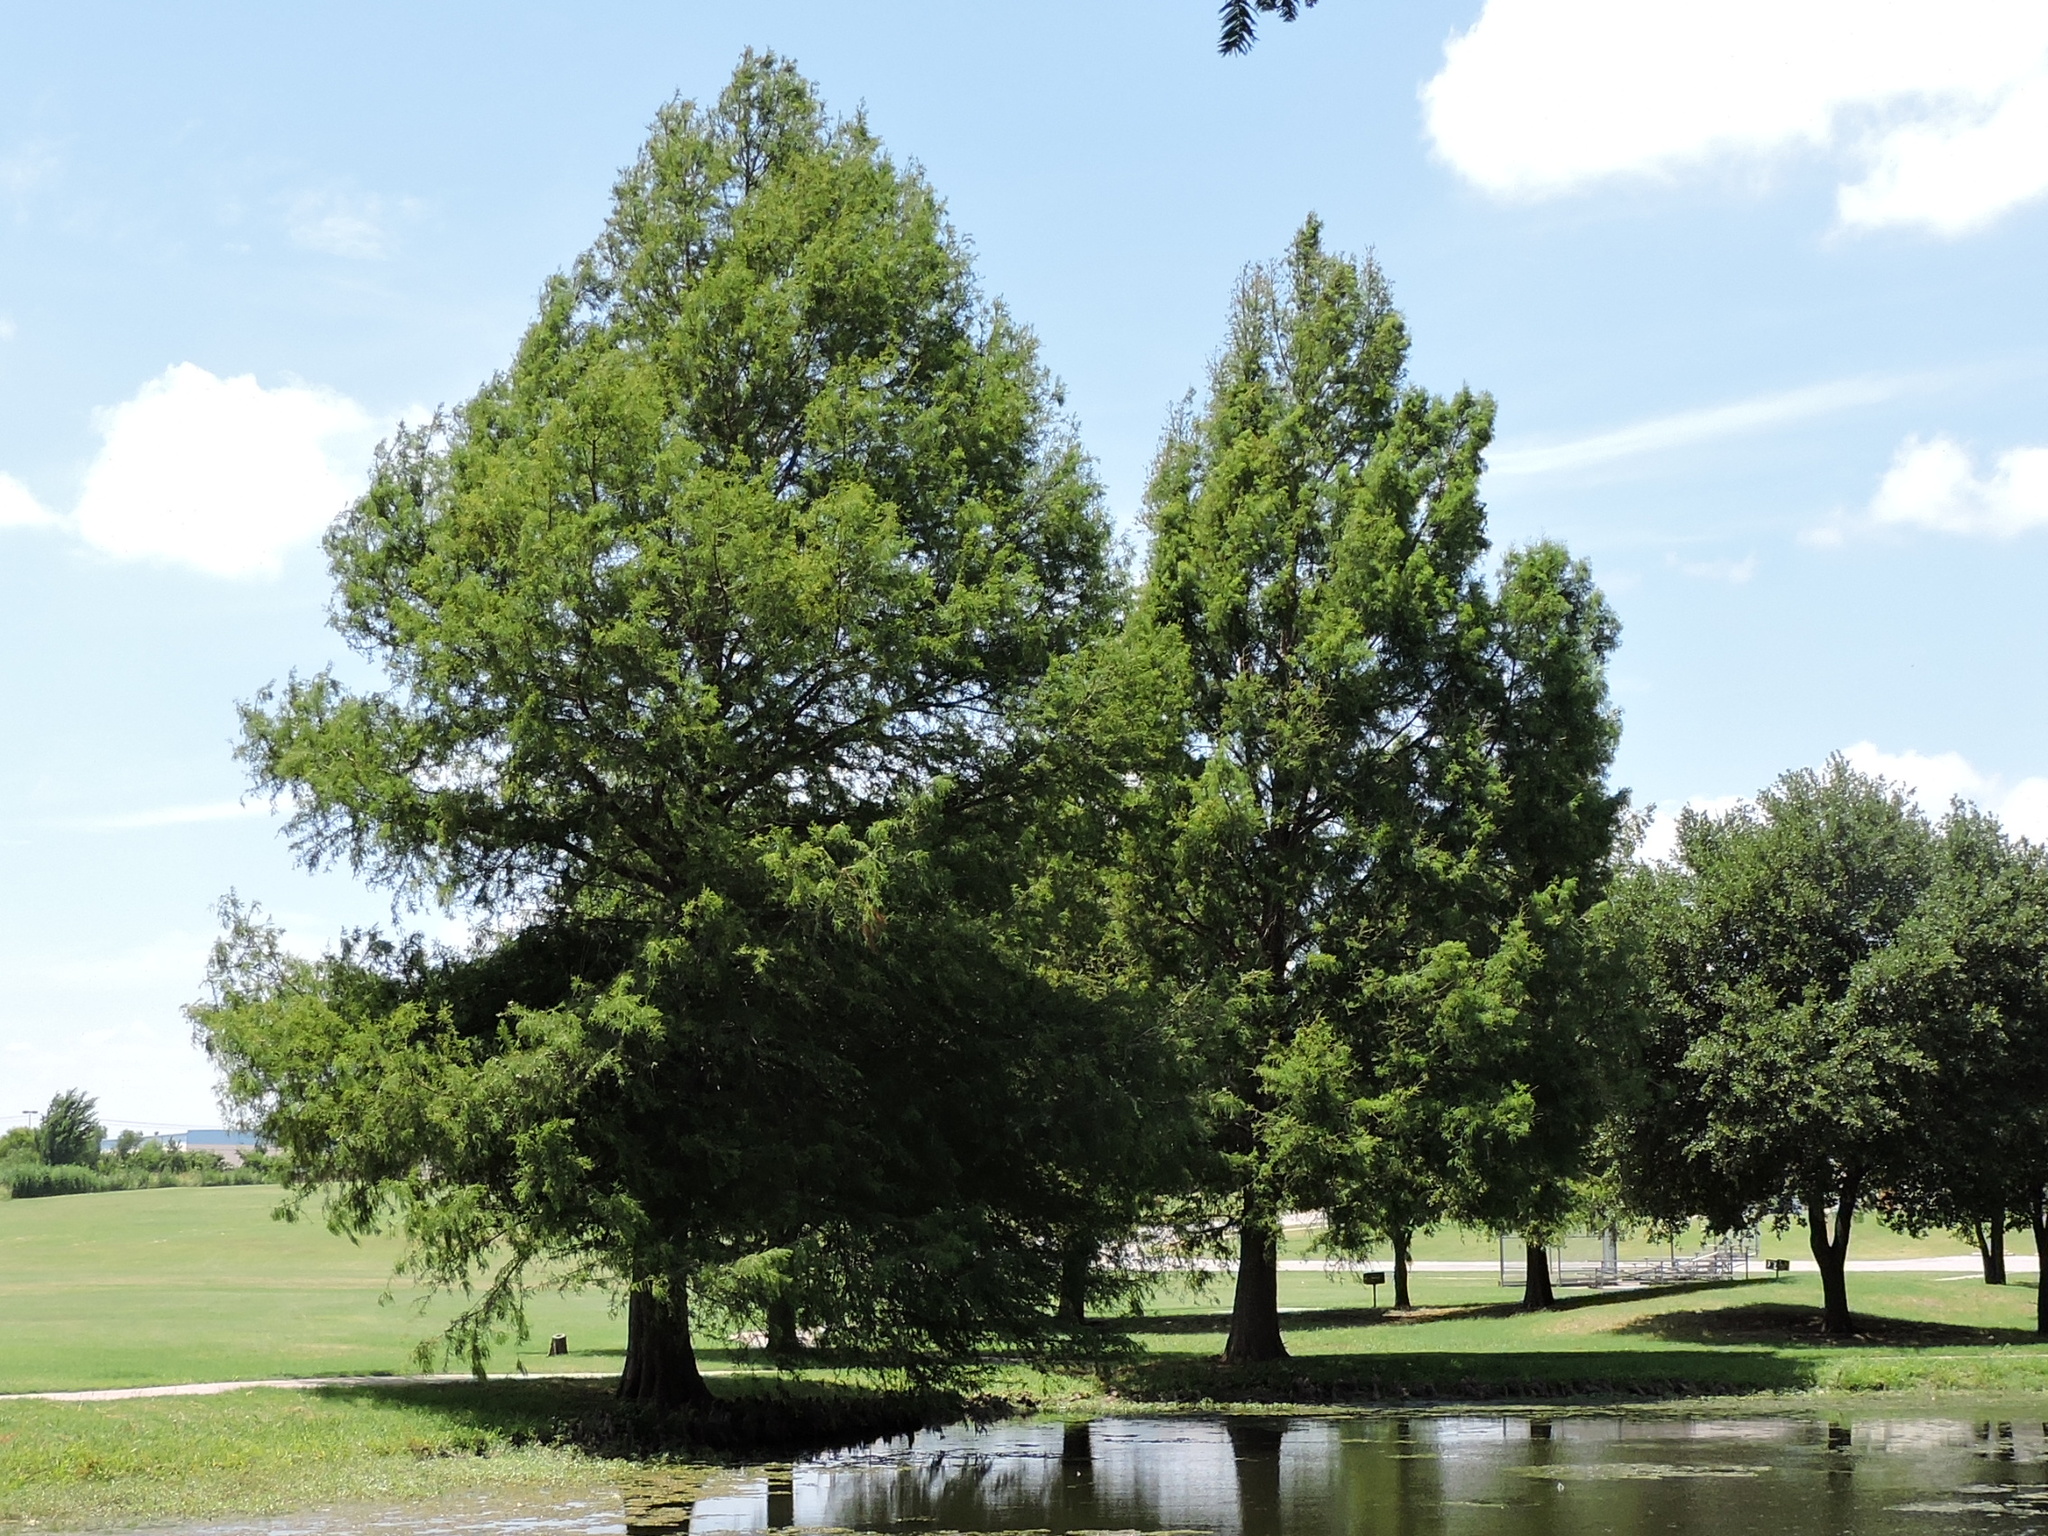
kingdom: Plantae
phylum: Tracheophyta
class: Pinopsida
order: Pinales
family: Cupressaceae
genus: Taxodium
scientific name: Taxodium distichum
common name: Bald cypress
